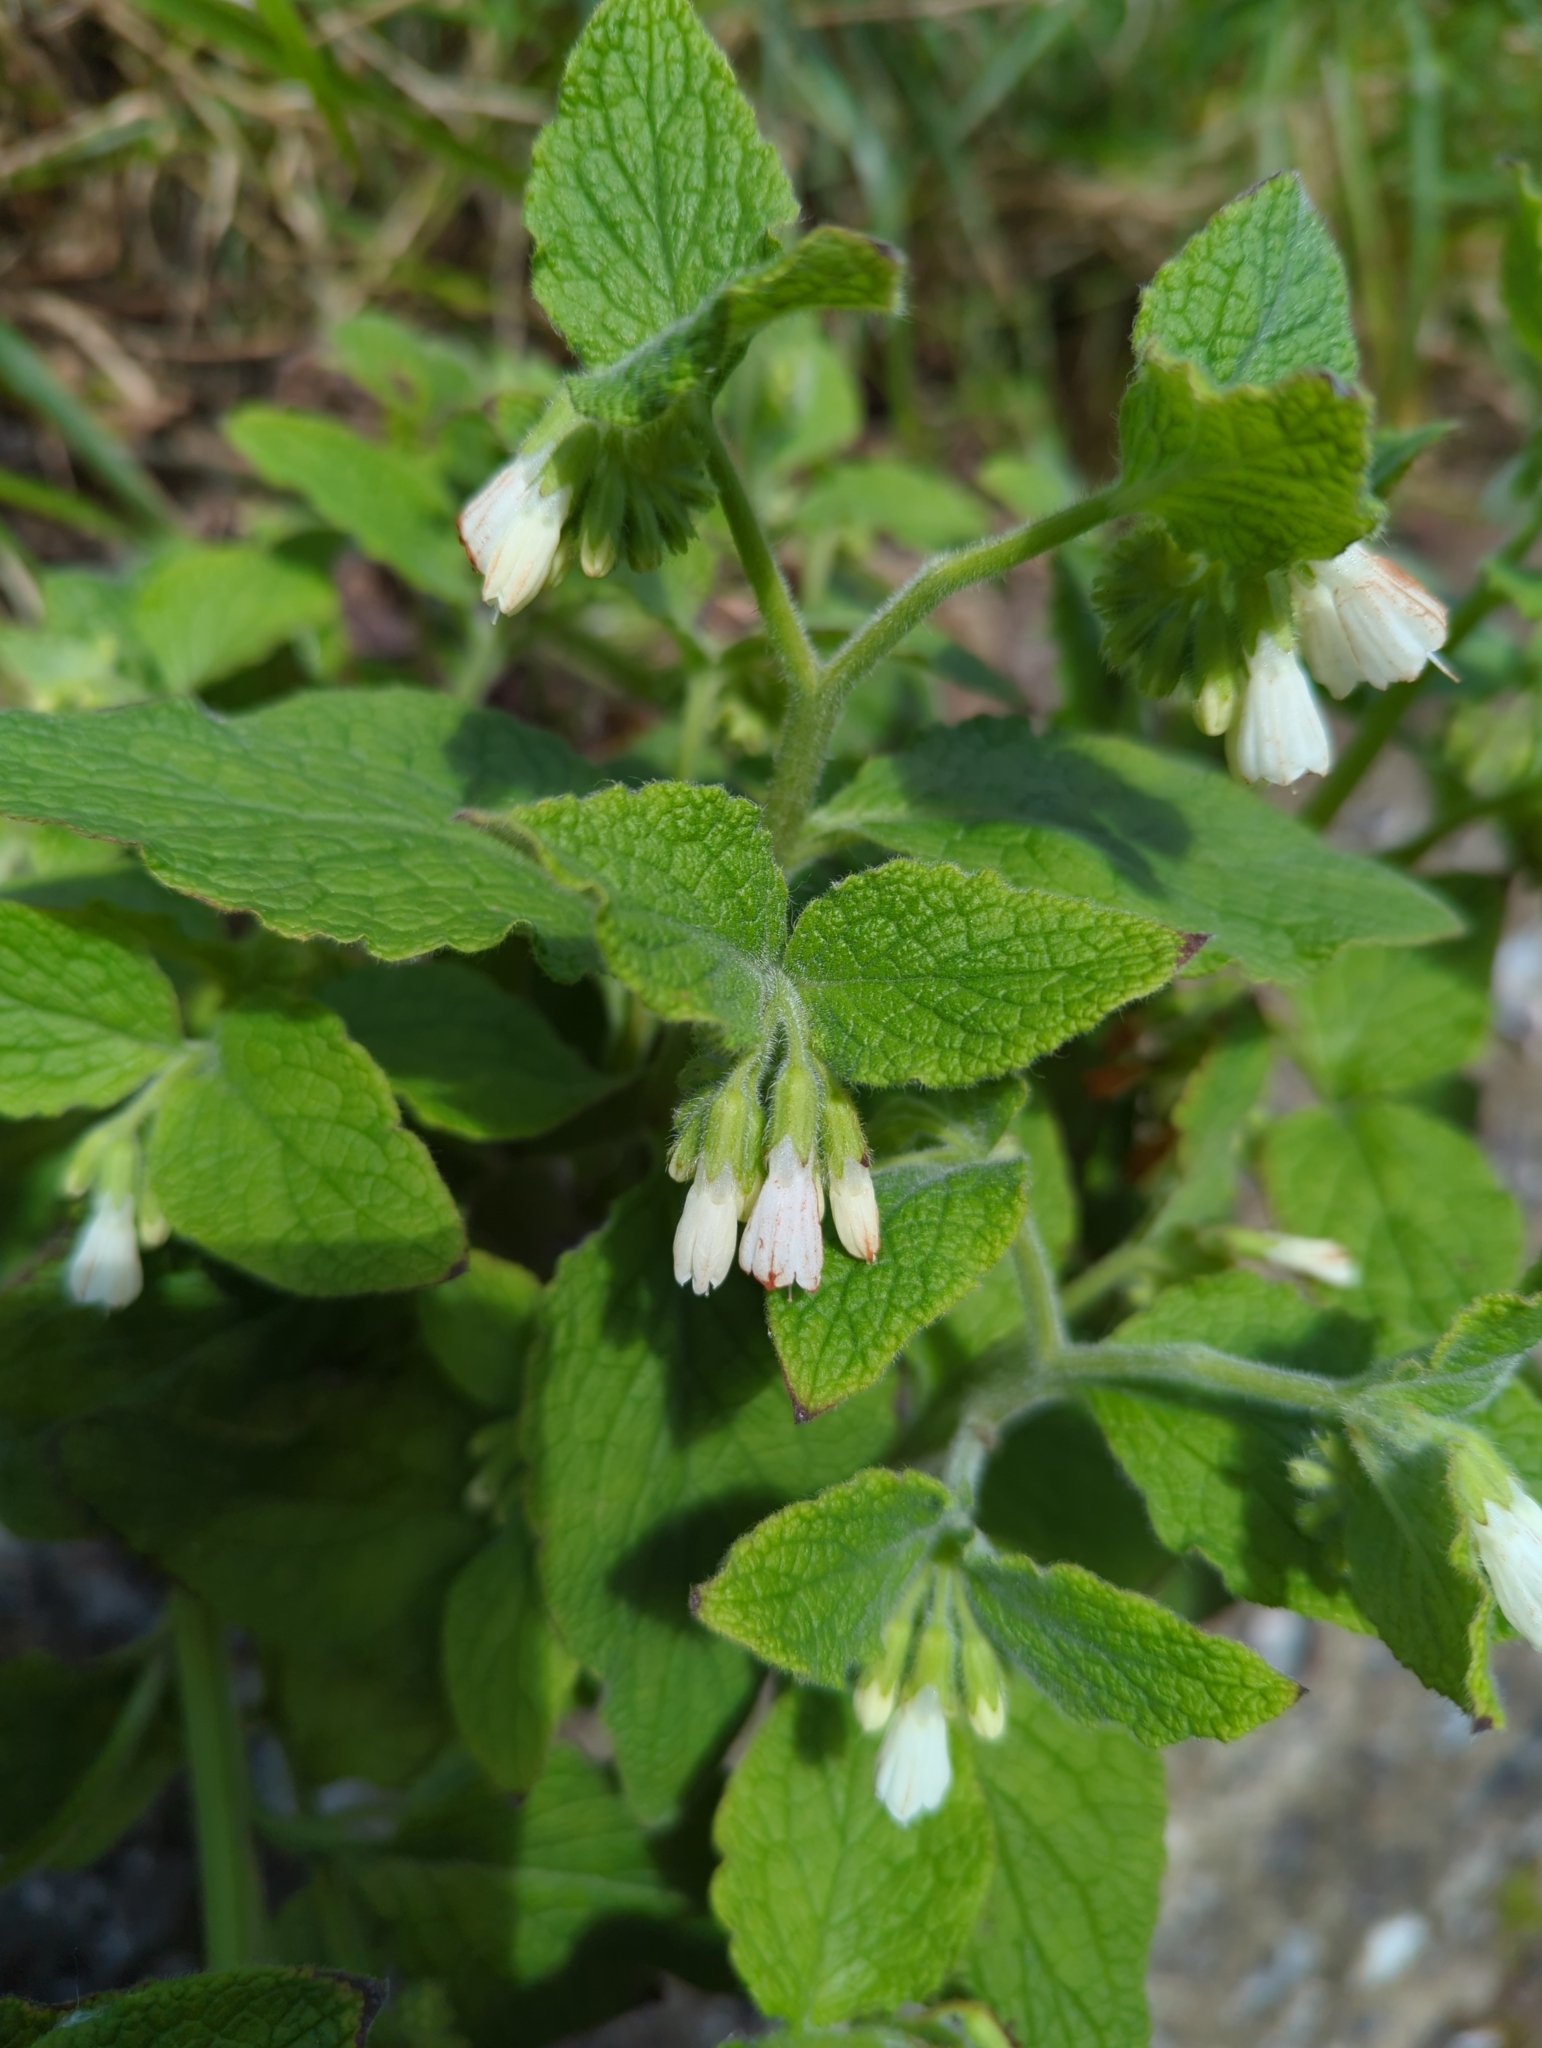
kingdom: Plantae
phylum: Tracheophyta
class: Magnoliopsida
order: Boraginales
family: Boraginaceae
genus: Symphytum
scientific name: Symphytum orientale
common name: White comfrey
